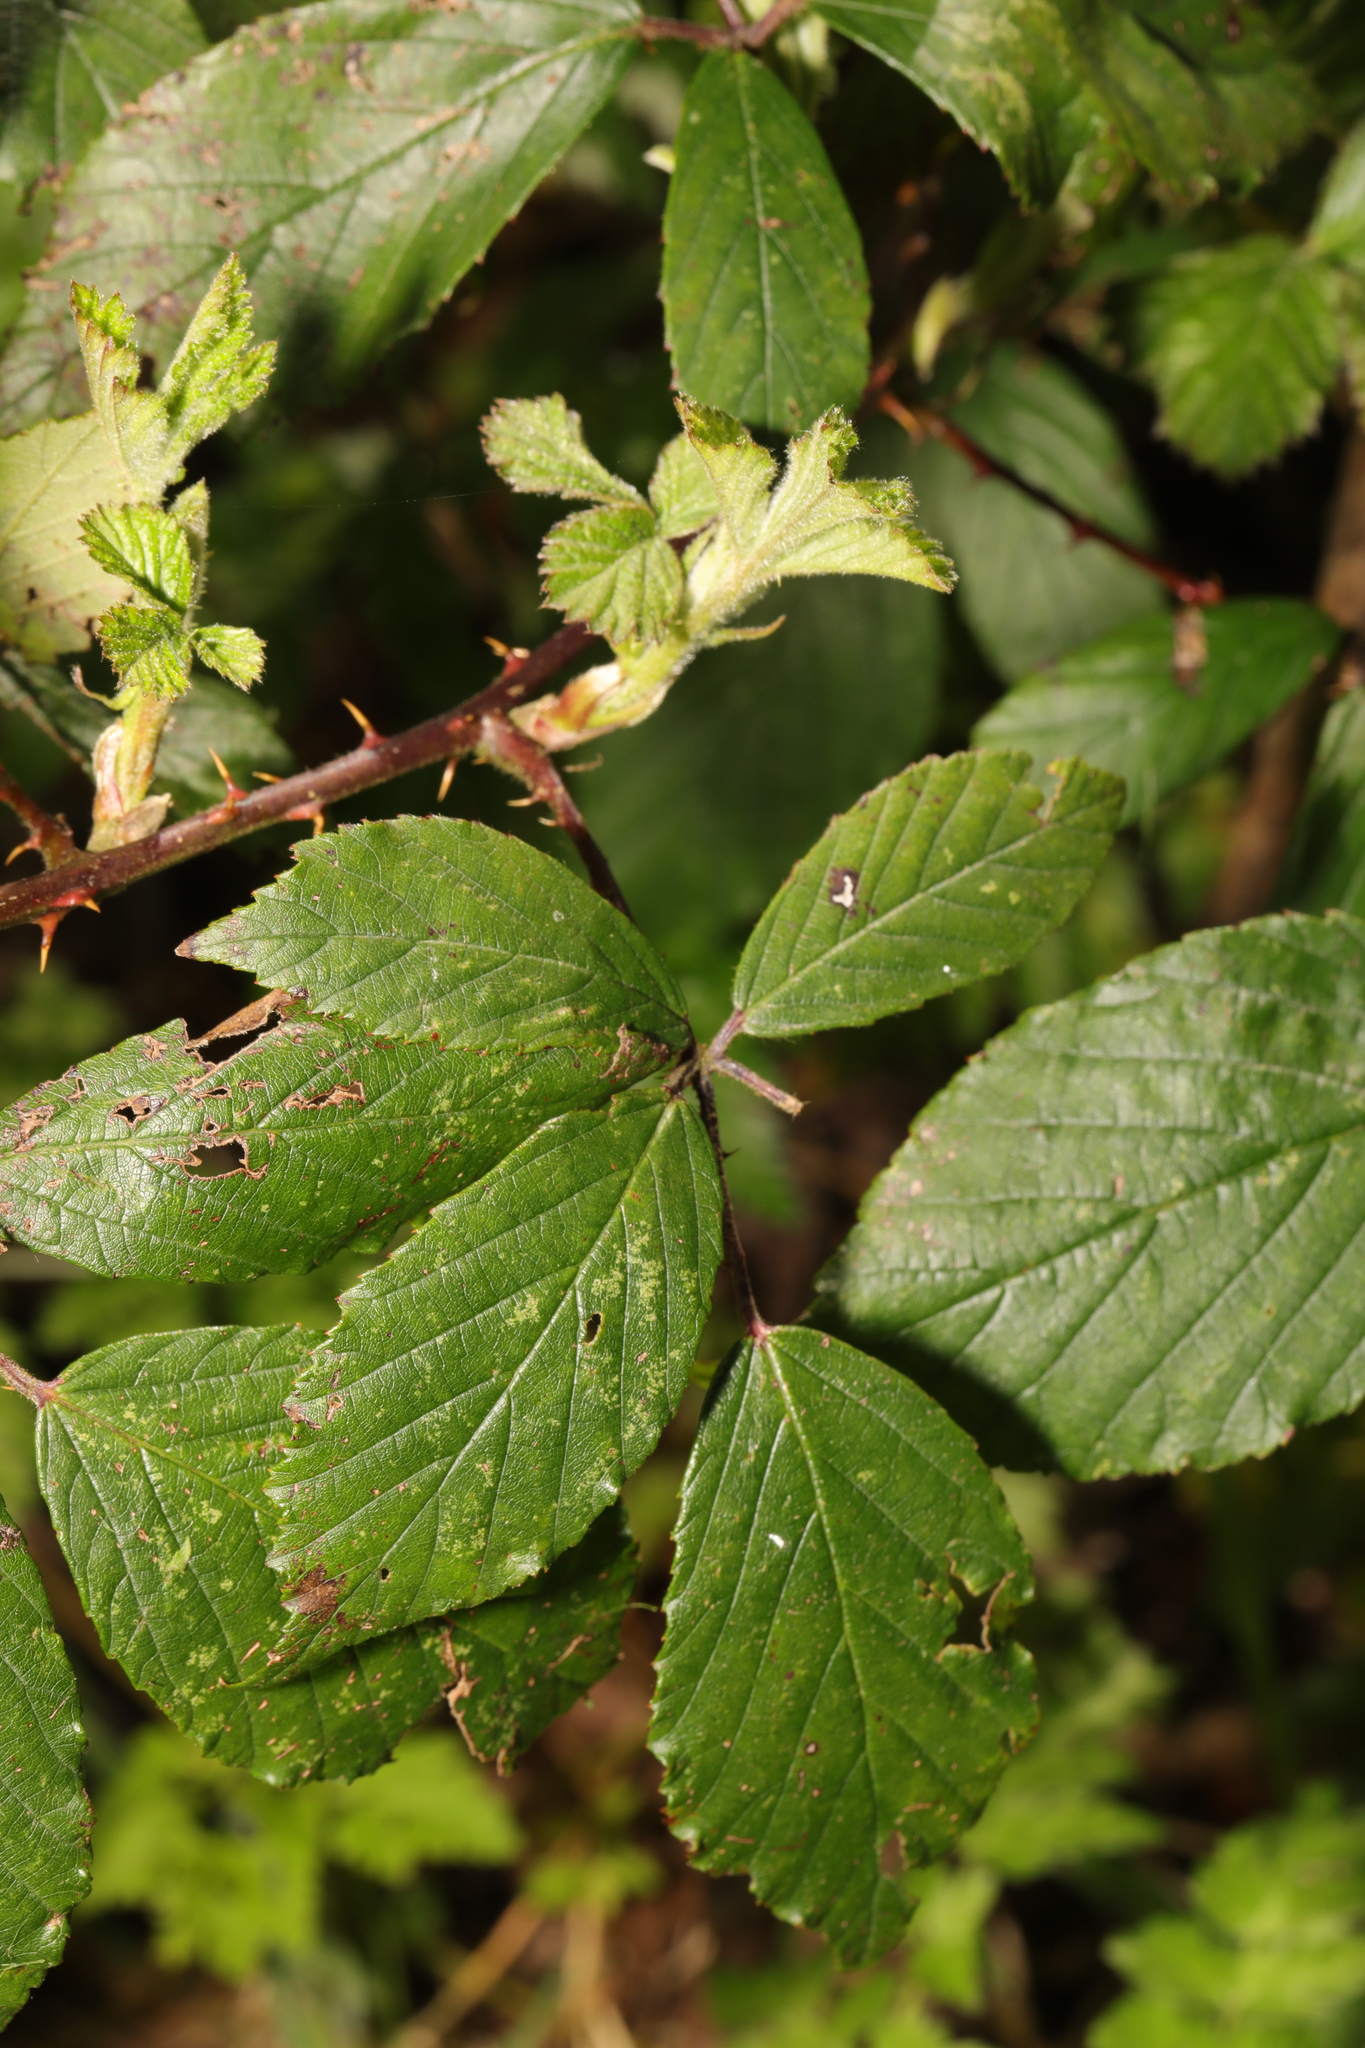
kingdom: Plantae
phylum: Tracheophyta
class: Magnoliopsida
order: Rosales
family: Rosaceae
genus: Rubus
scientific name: Rubus lindleyanus
